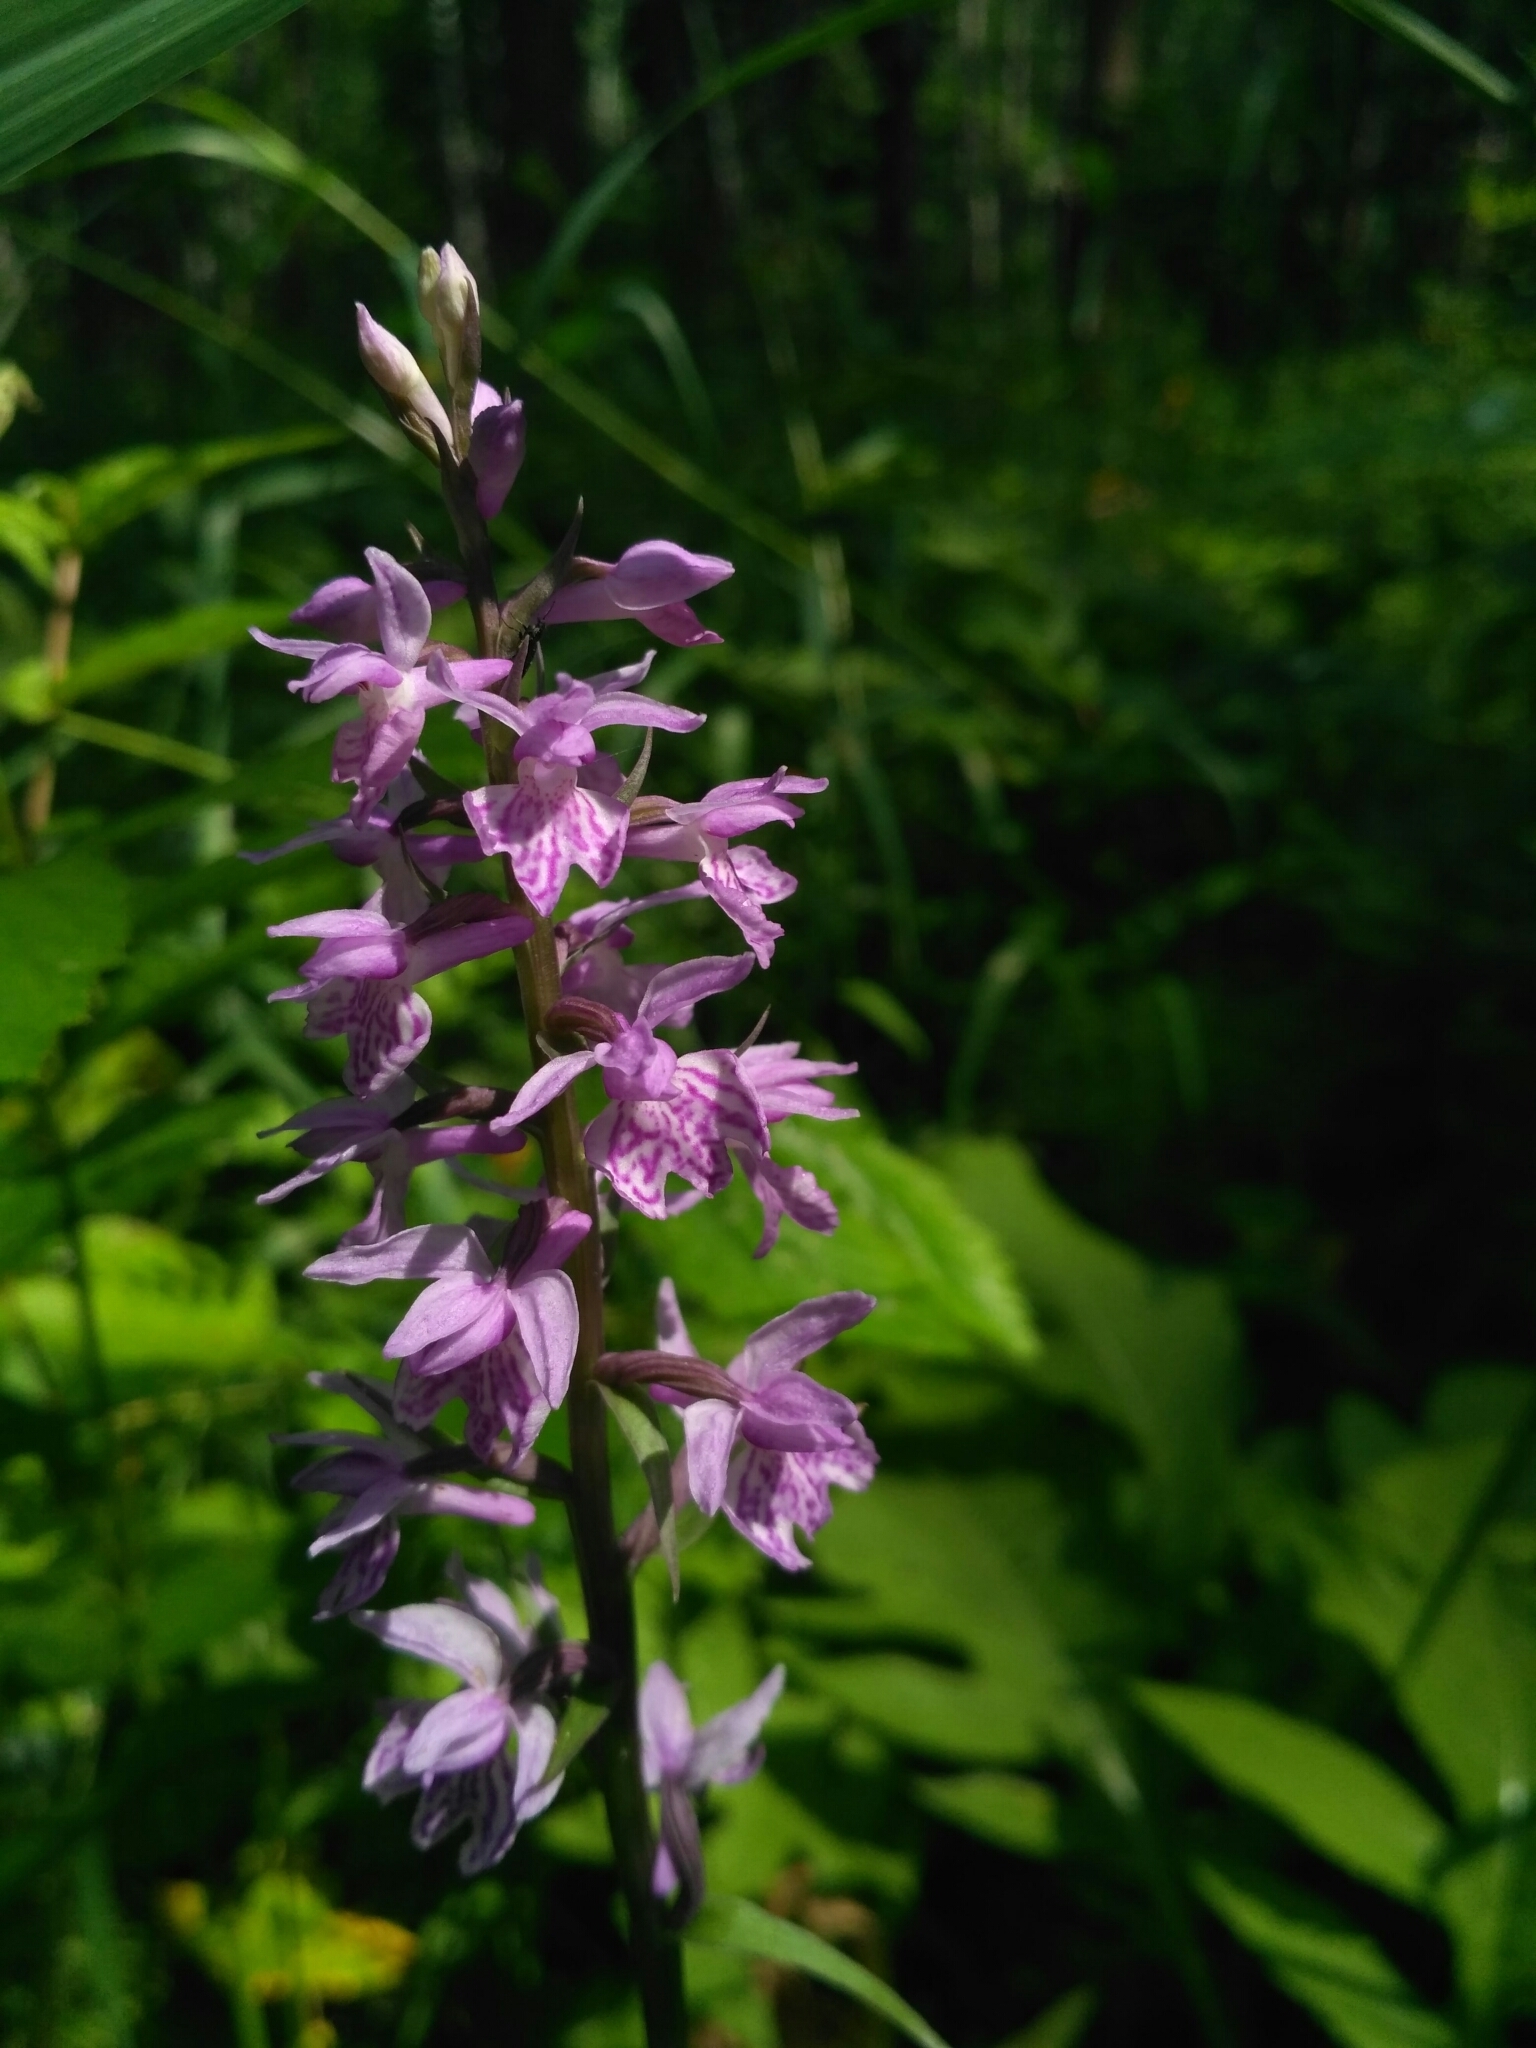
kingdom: Plantae
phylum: Tracheophyta
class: Liliopsida
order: Asparagales
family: Orchidaceae
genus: Dactylorhiza
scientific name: Dactylorhiza maculata
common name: Heath spotted-orchid
